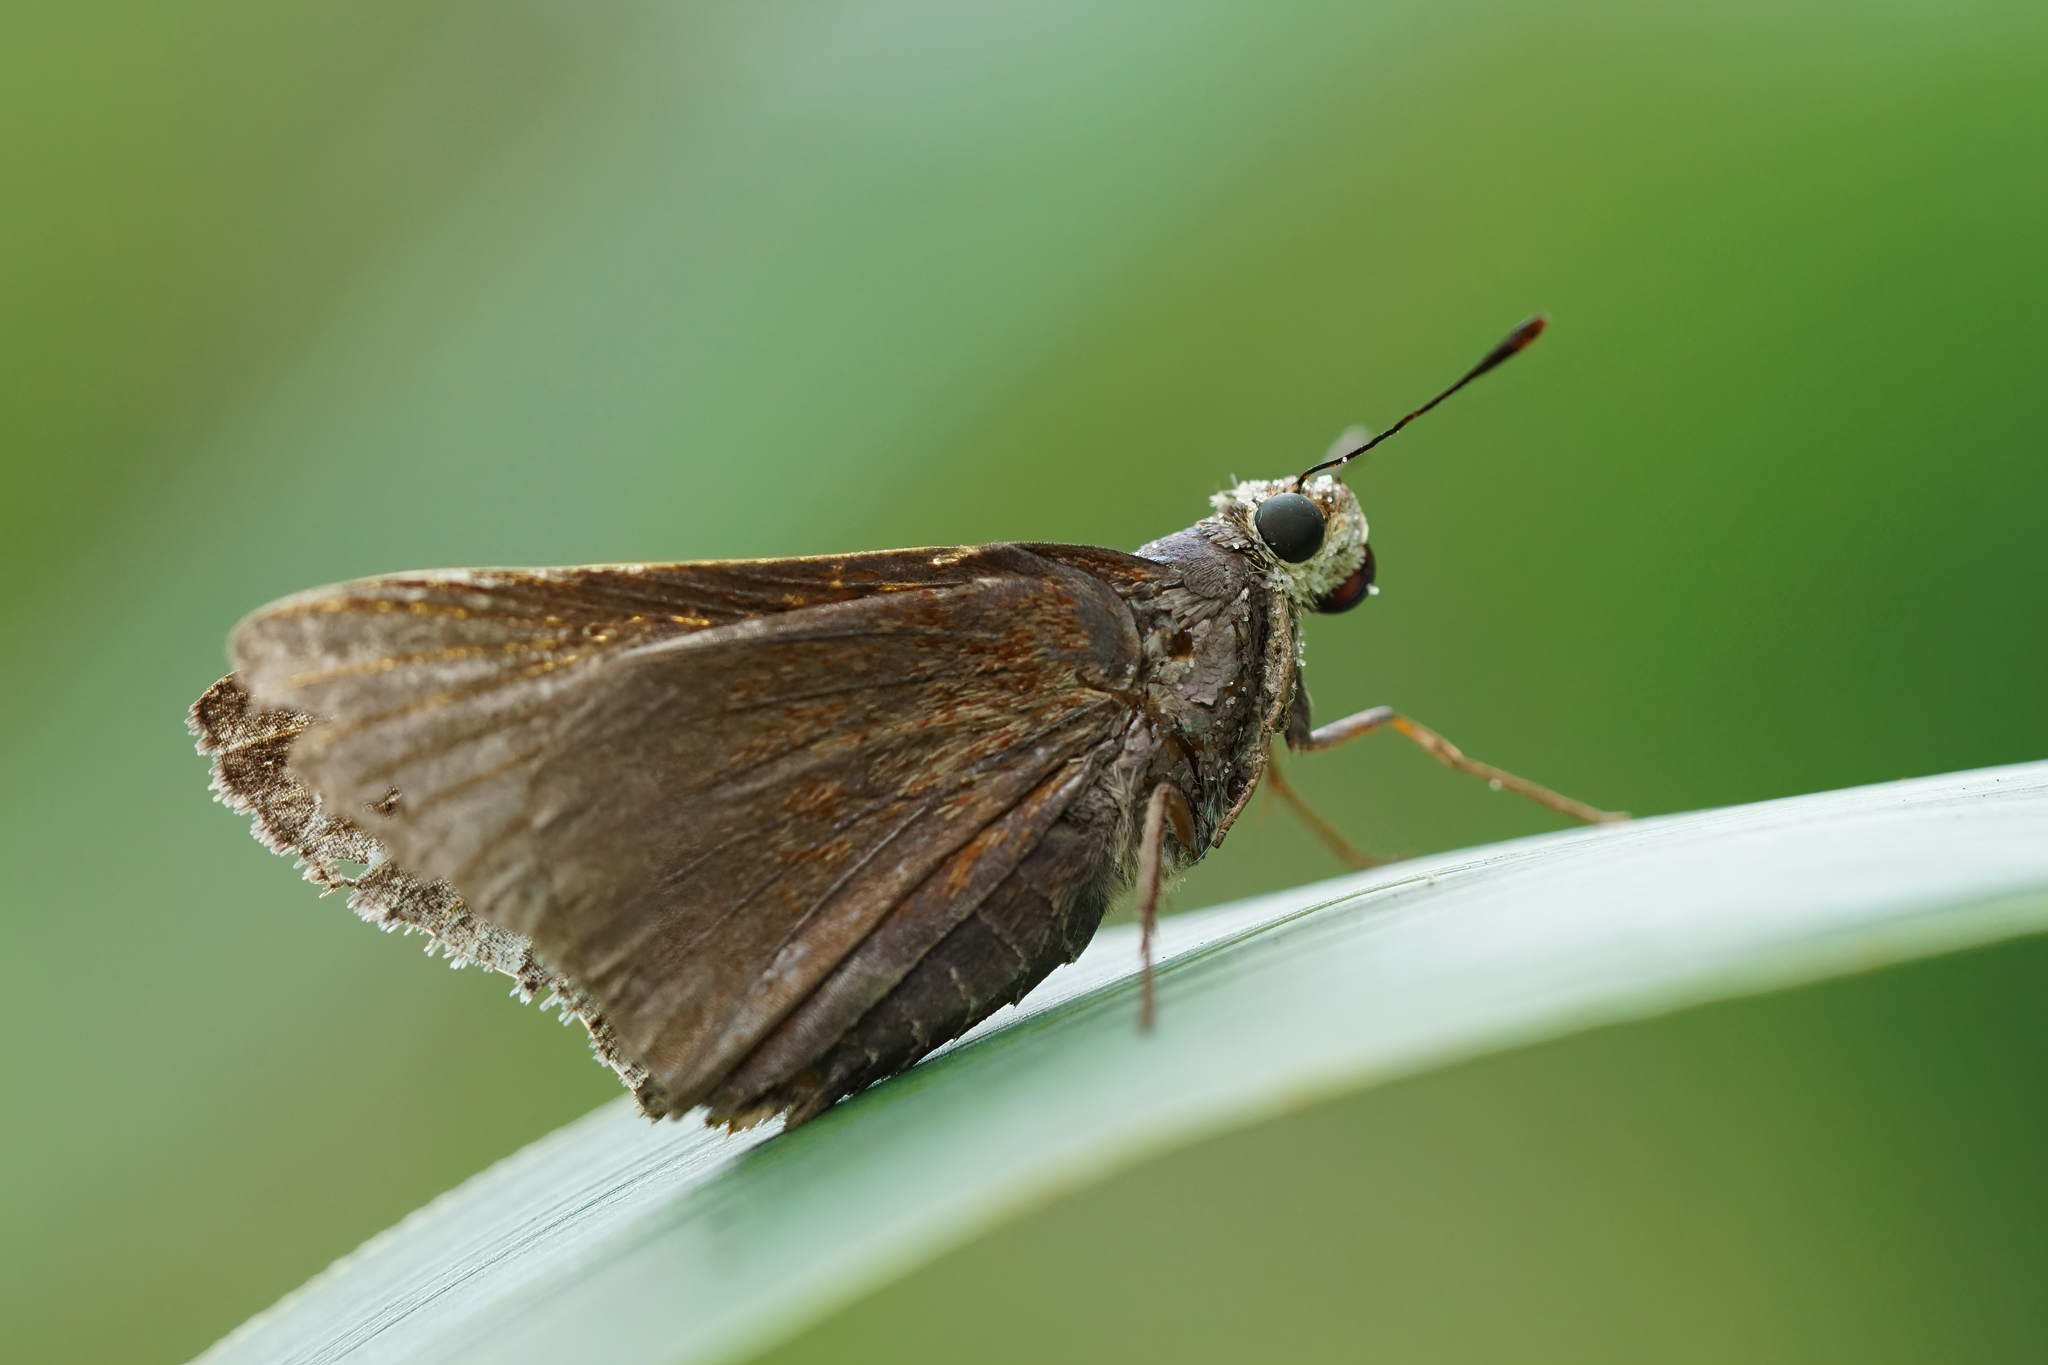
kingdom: Animalia
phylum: Arthropoda
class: Insecta
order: Lepidoptera
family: Hesperiidae
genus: Asbolis
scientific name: Asbolis capucinus
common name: Monk skipper
